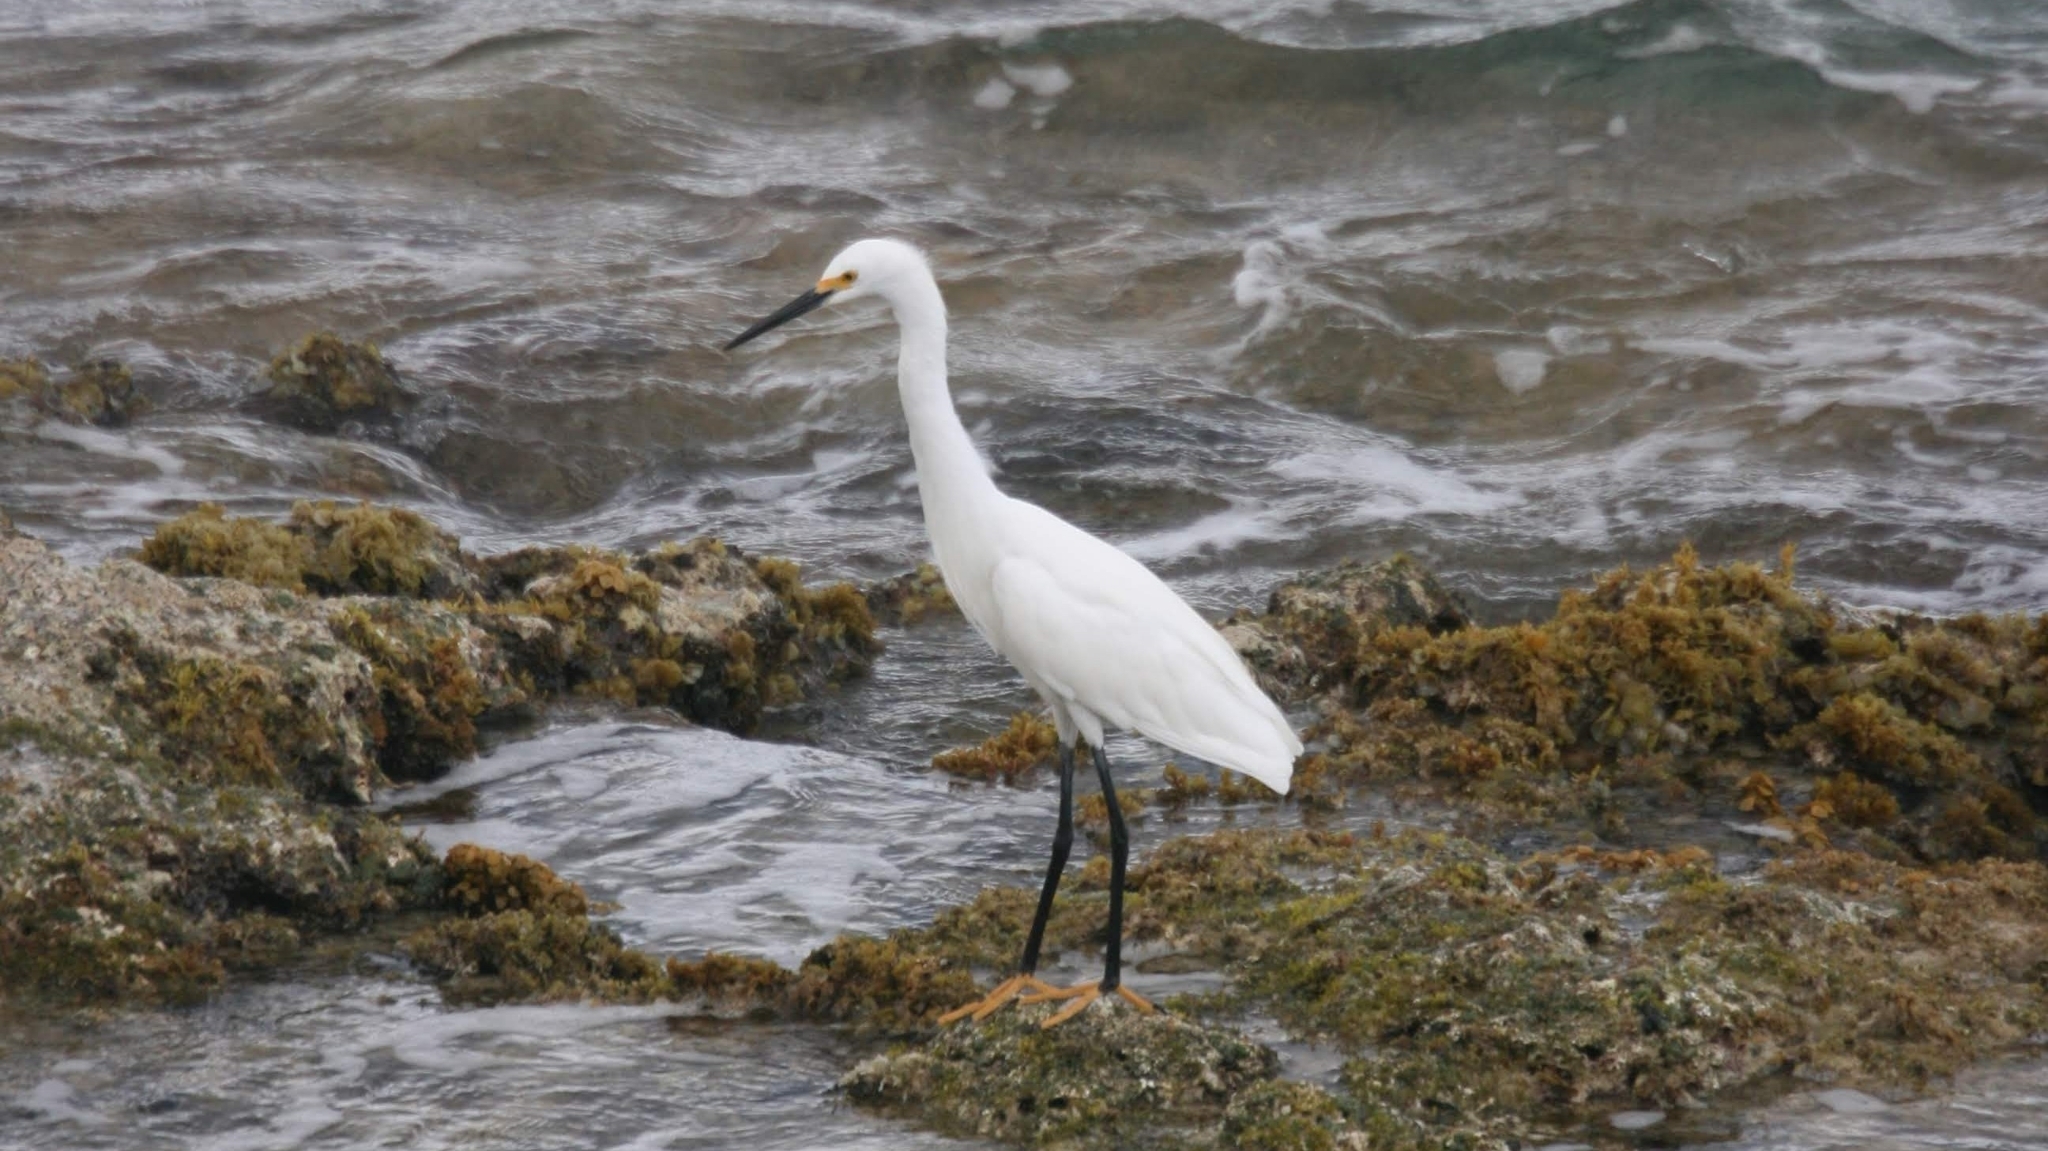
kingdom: Animalia
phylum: Chordata
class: Aves
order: Pelecaniformes
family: Ardeidae
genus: Egretta
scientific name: Egretta thula
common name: Snowy egret
